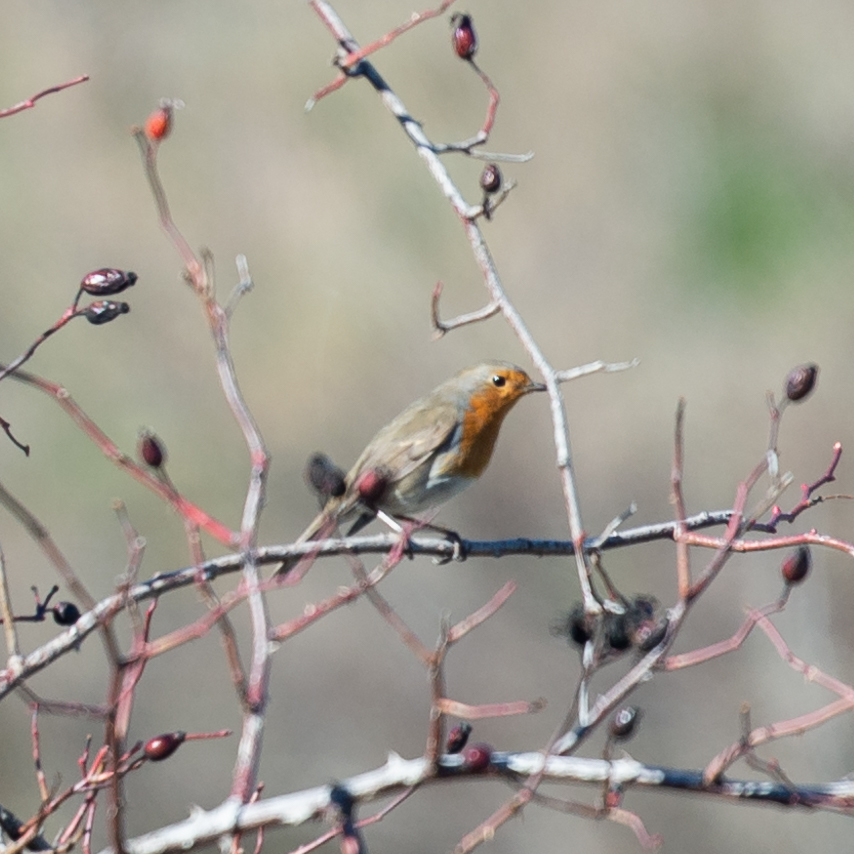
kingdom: Animalia
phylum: Chordata
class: Aves
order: Passeriformes
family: Muscicapidae
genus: Erithacus
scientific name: Erithacus rubecula
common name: European robin
